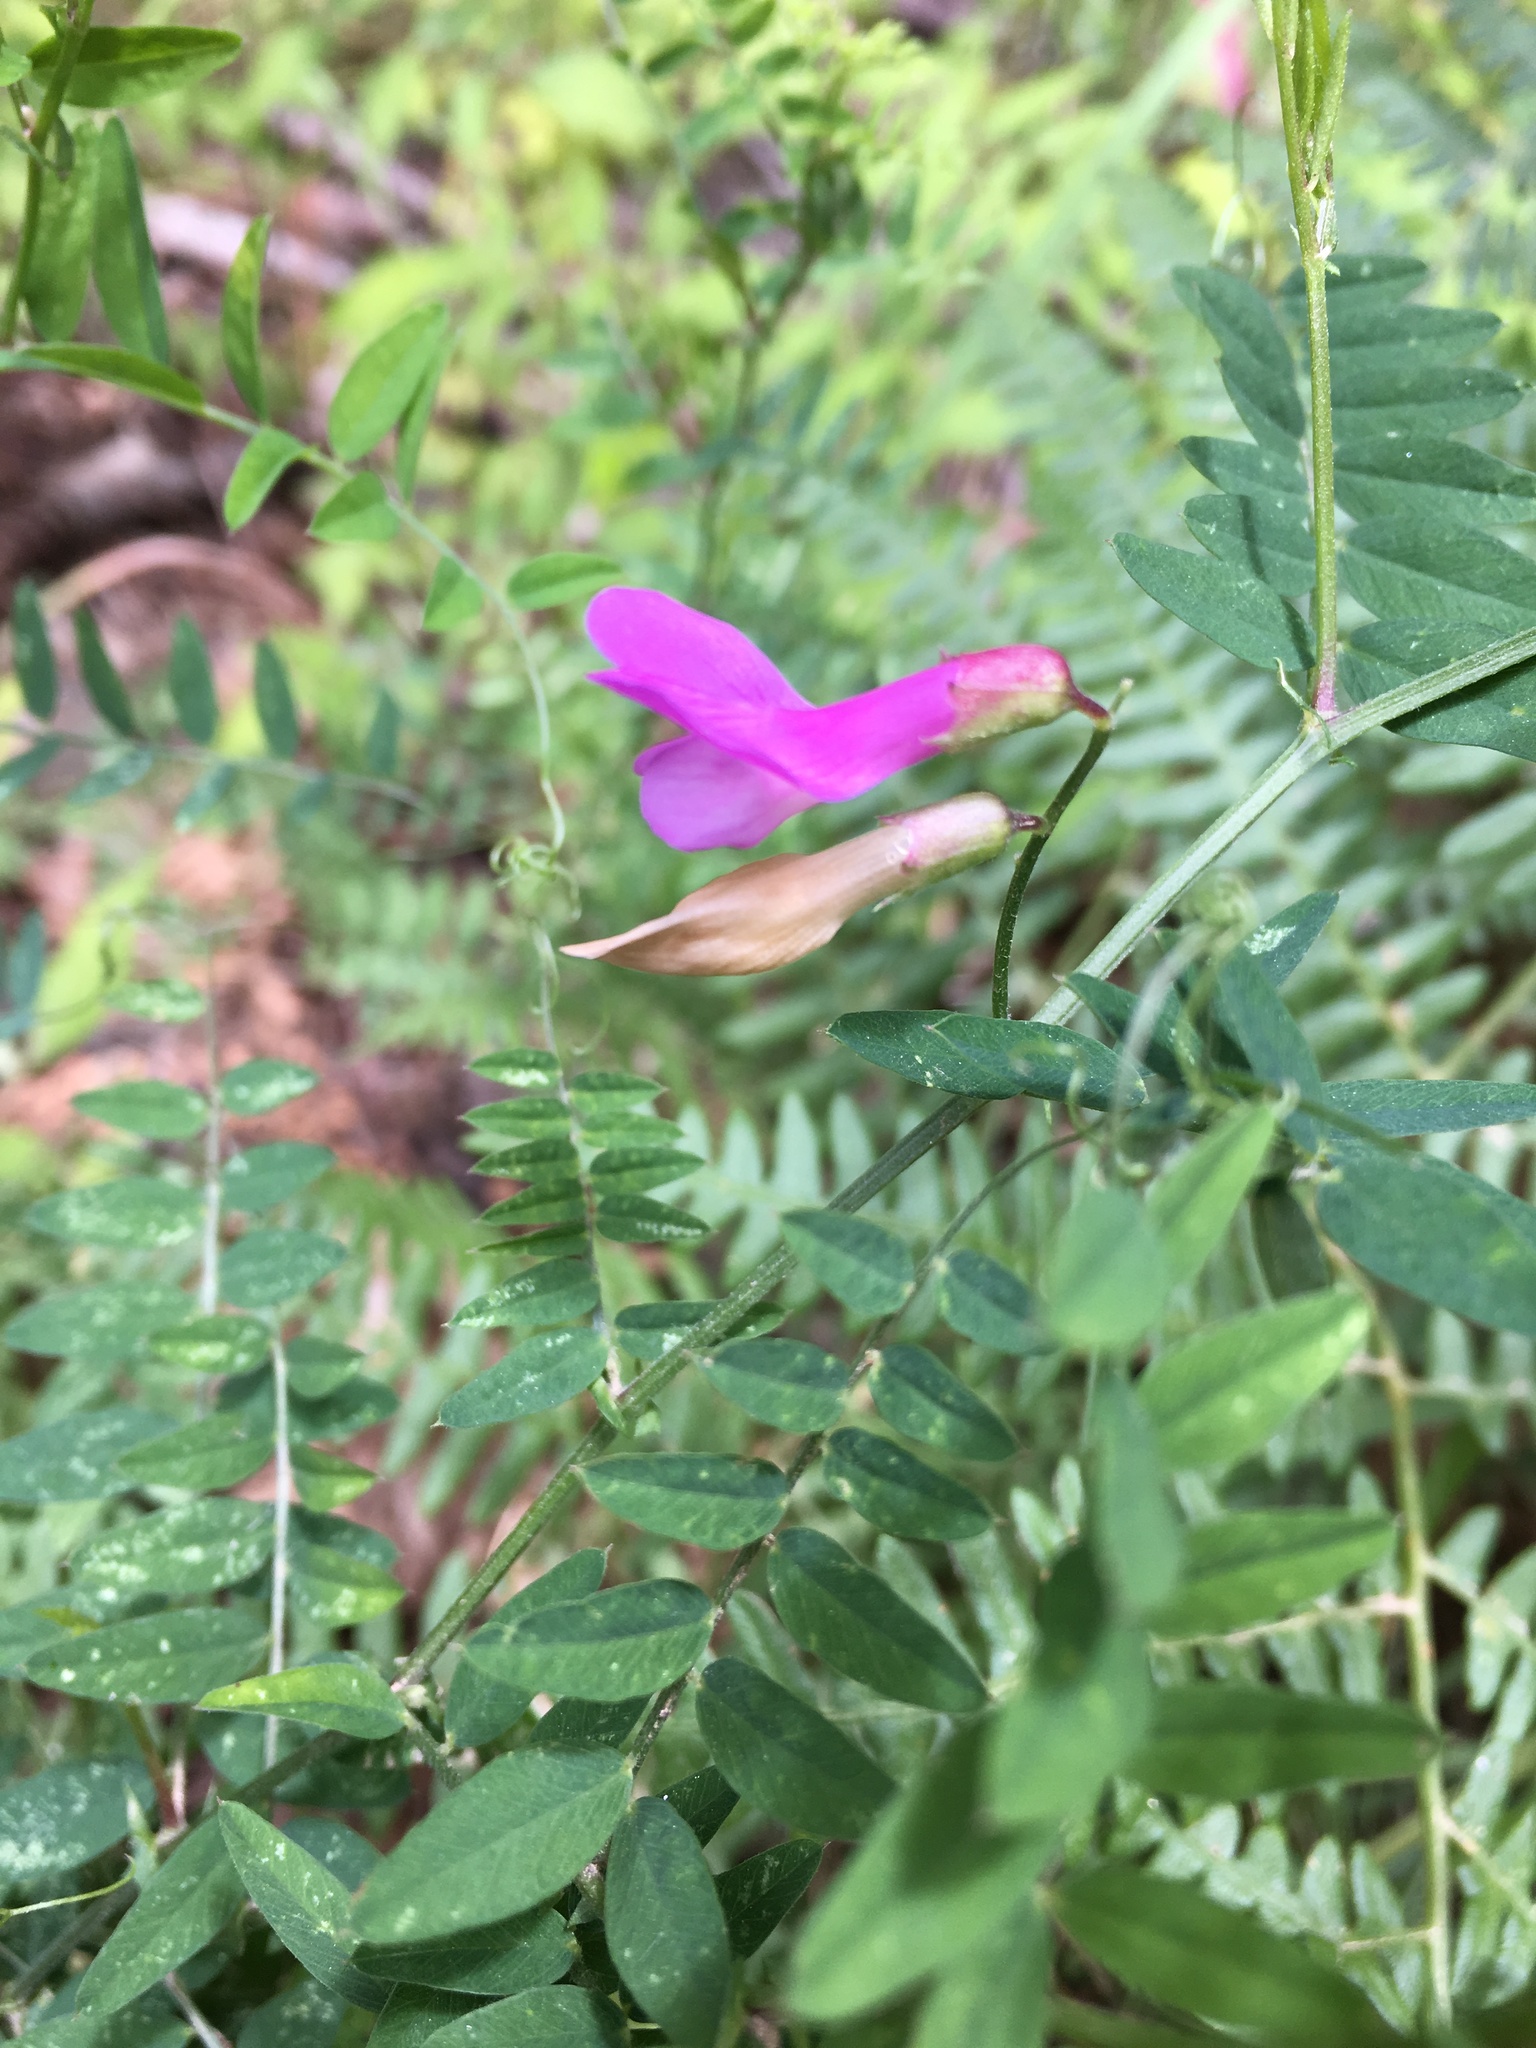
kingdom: Plantae
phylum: Tracheophyta
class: Magnoliopsida
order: Fabales
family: Fabaceae
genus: Vicia
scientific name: Vicia americana
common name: American vetch
